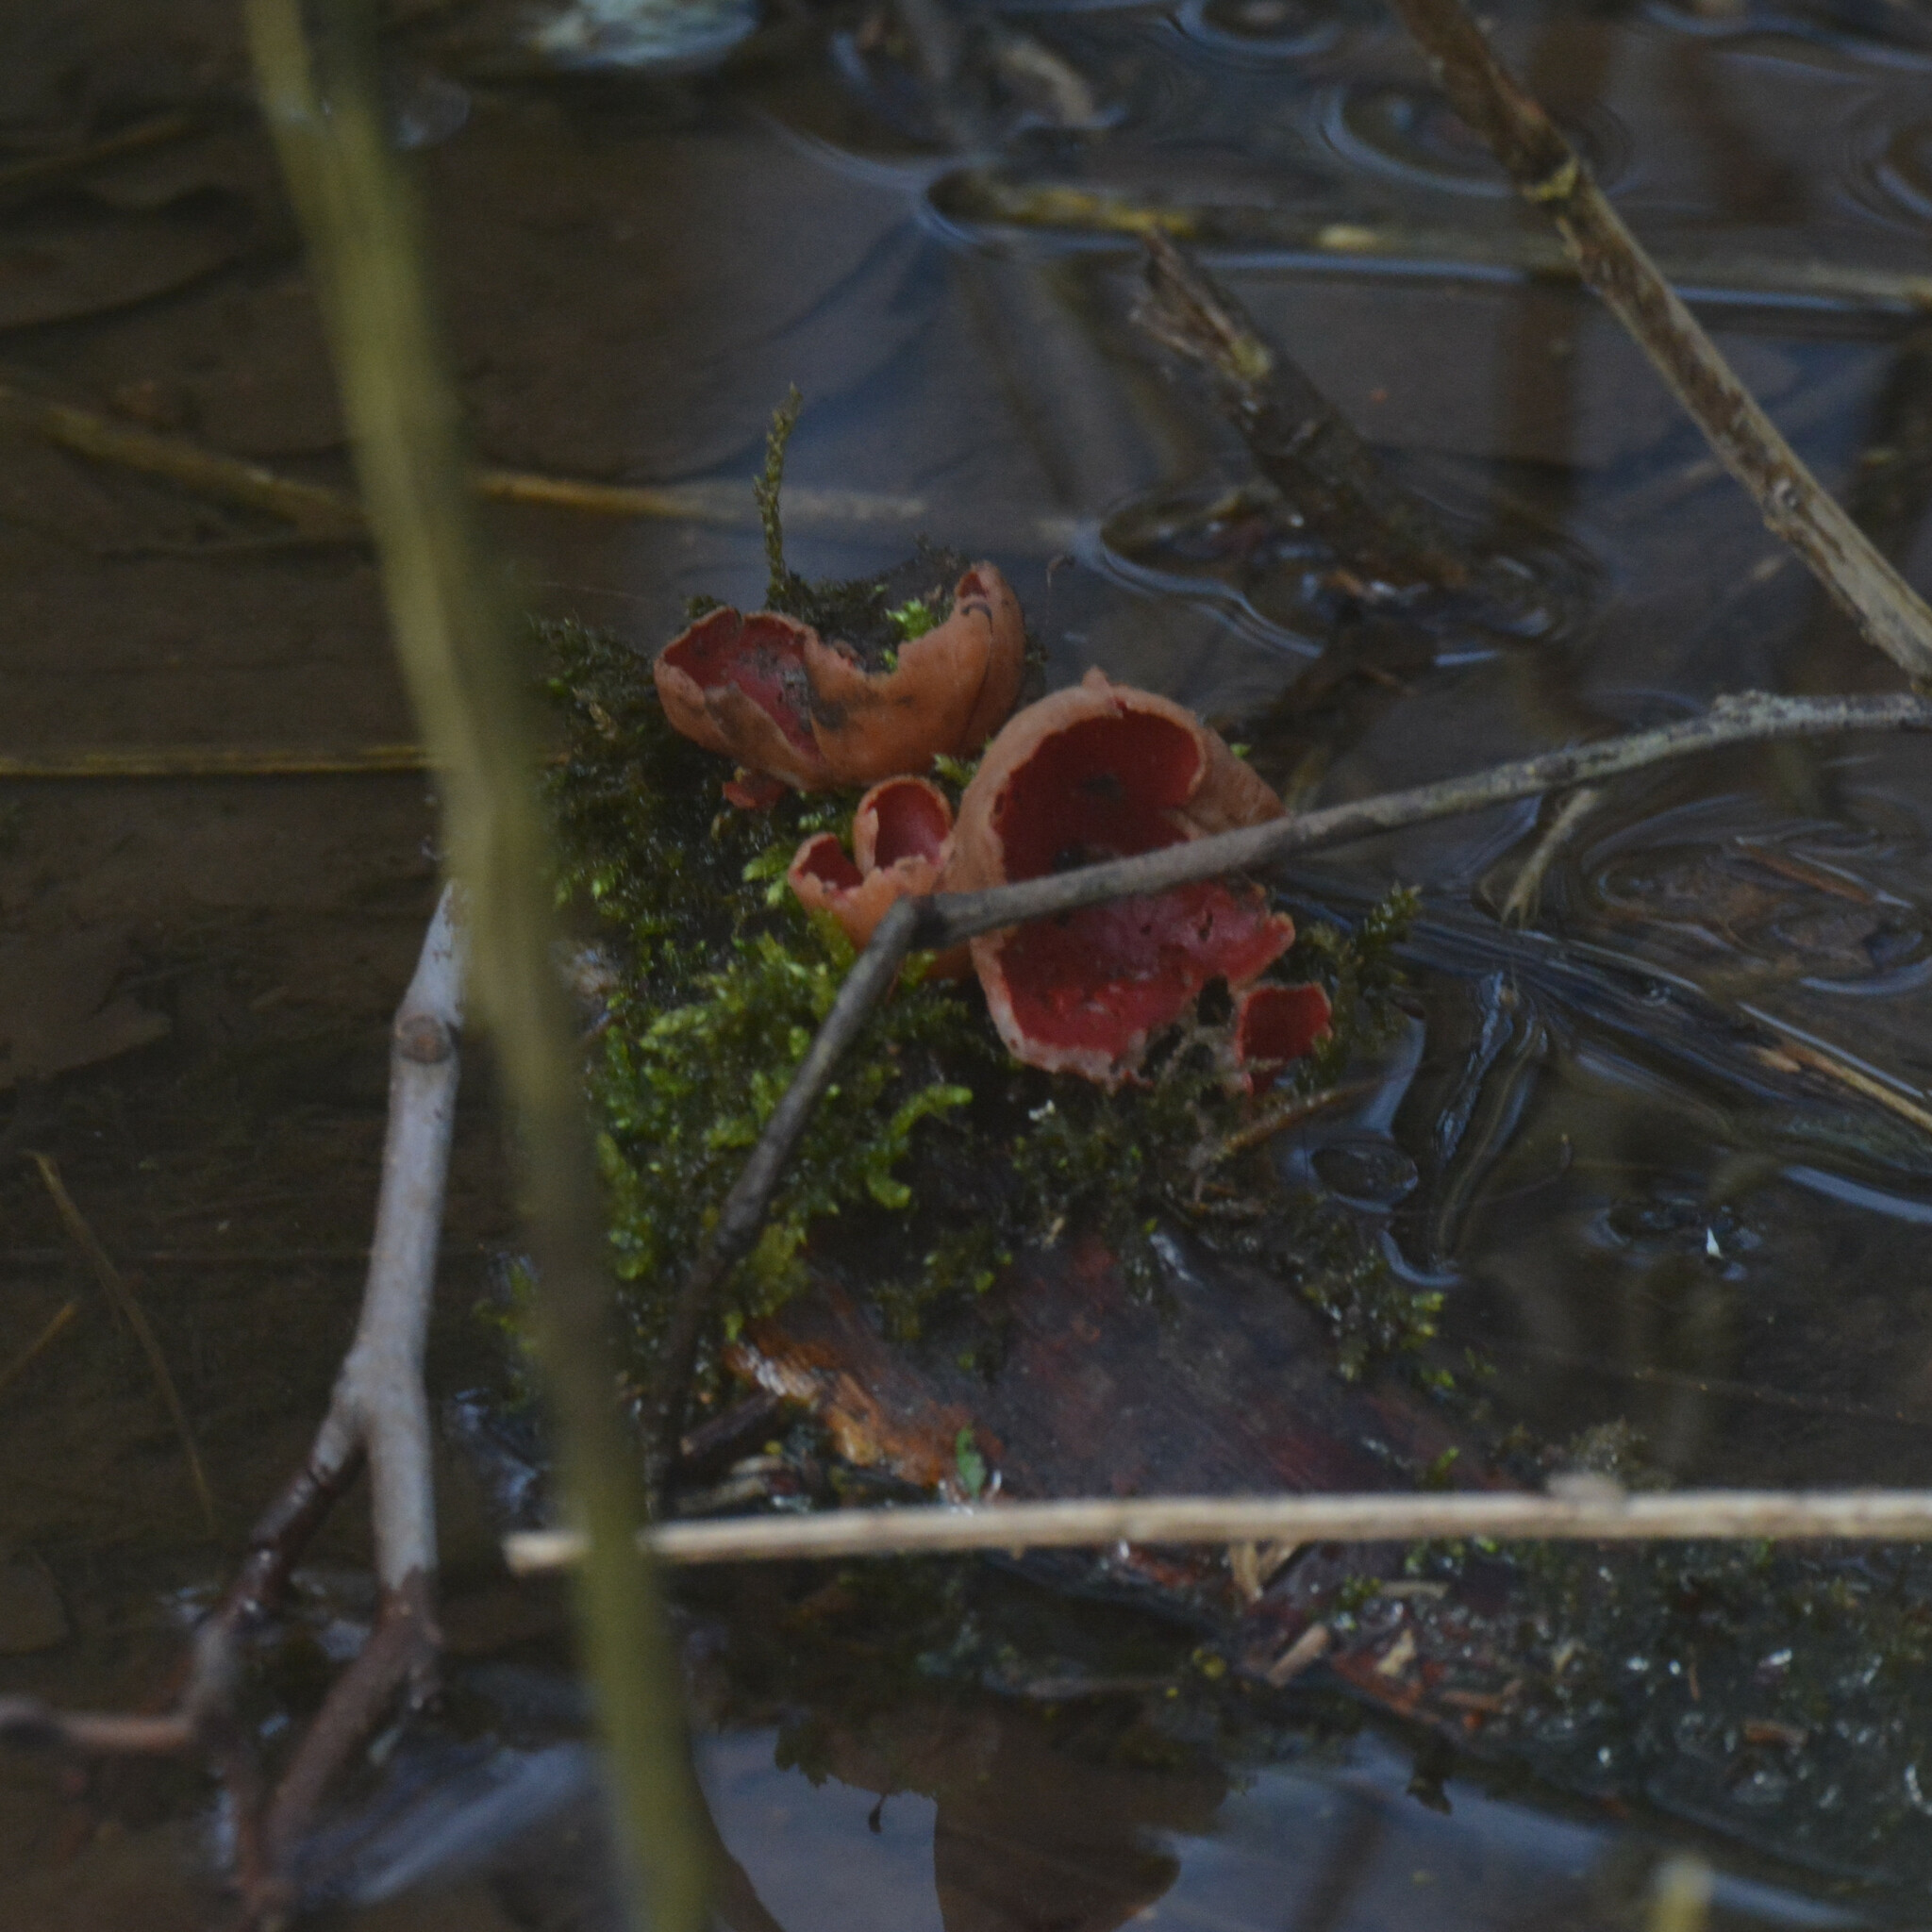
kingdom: Fungi
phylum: Ascomycota
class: Pezizomycetes
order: Pezizales
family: Sarcoscyphaceae
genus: Sarcoscypha
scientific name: Sarcoscypha
